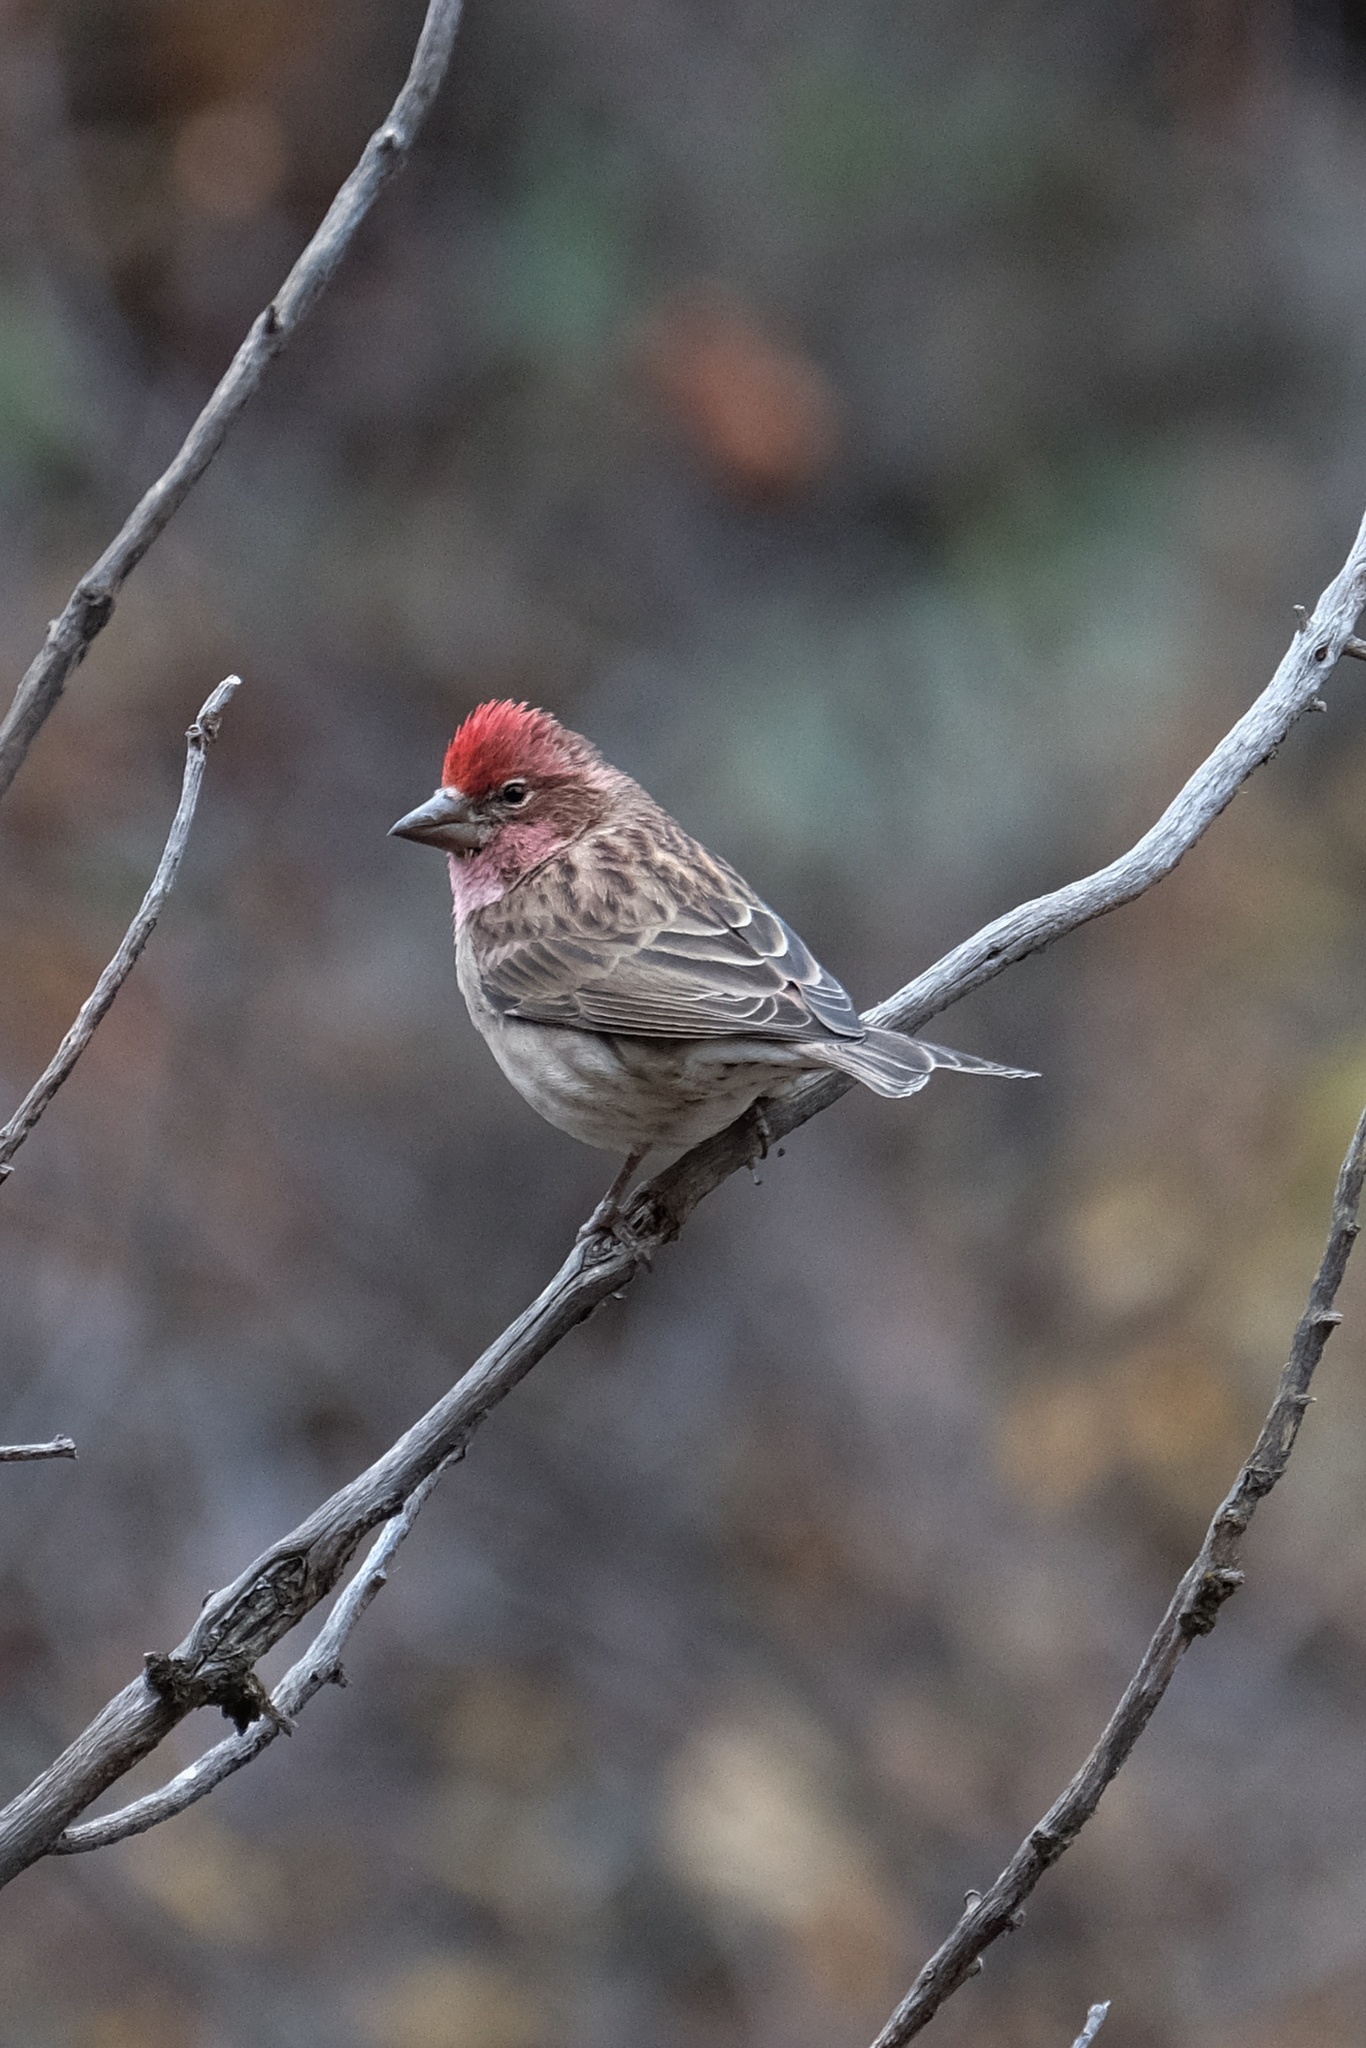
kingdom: Animalia
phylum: Chordata
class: Aves
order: Passeriformes
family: Fringillidae
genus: Haemorhous
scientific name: Haemorhous cassinii
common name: Cassin's finch
